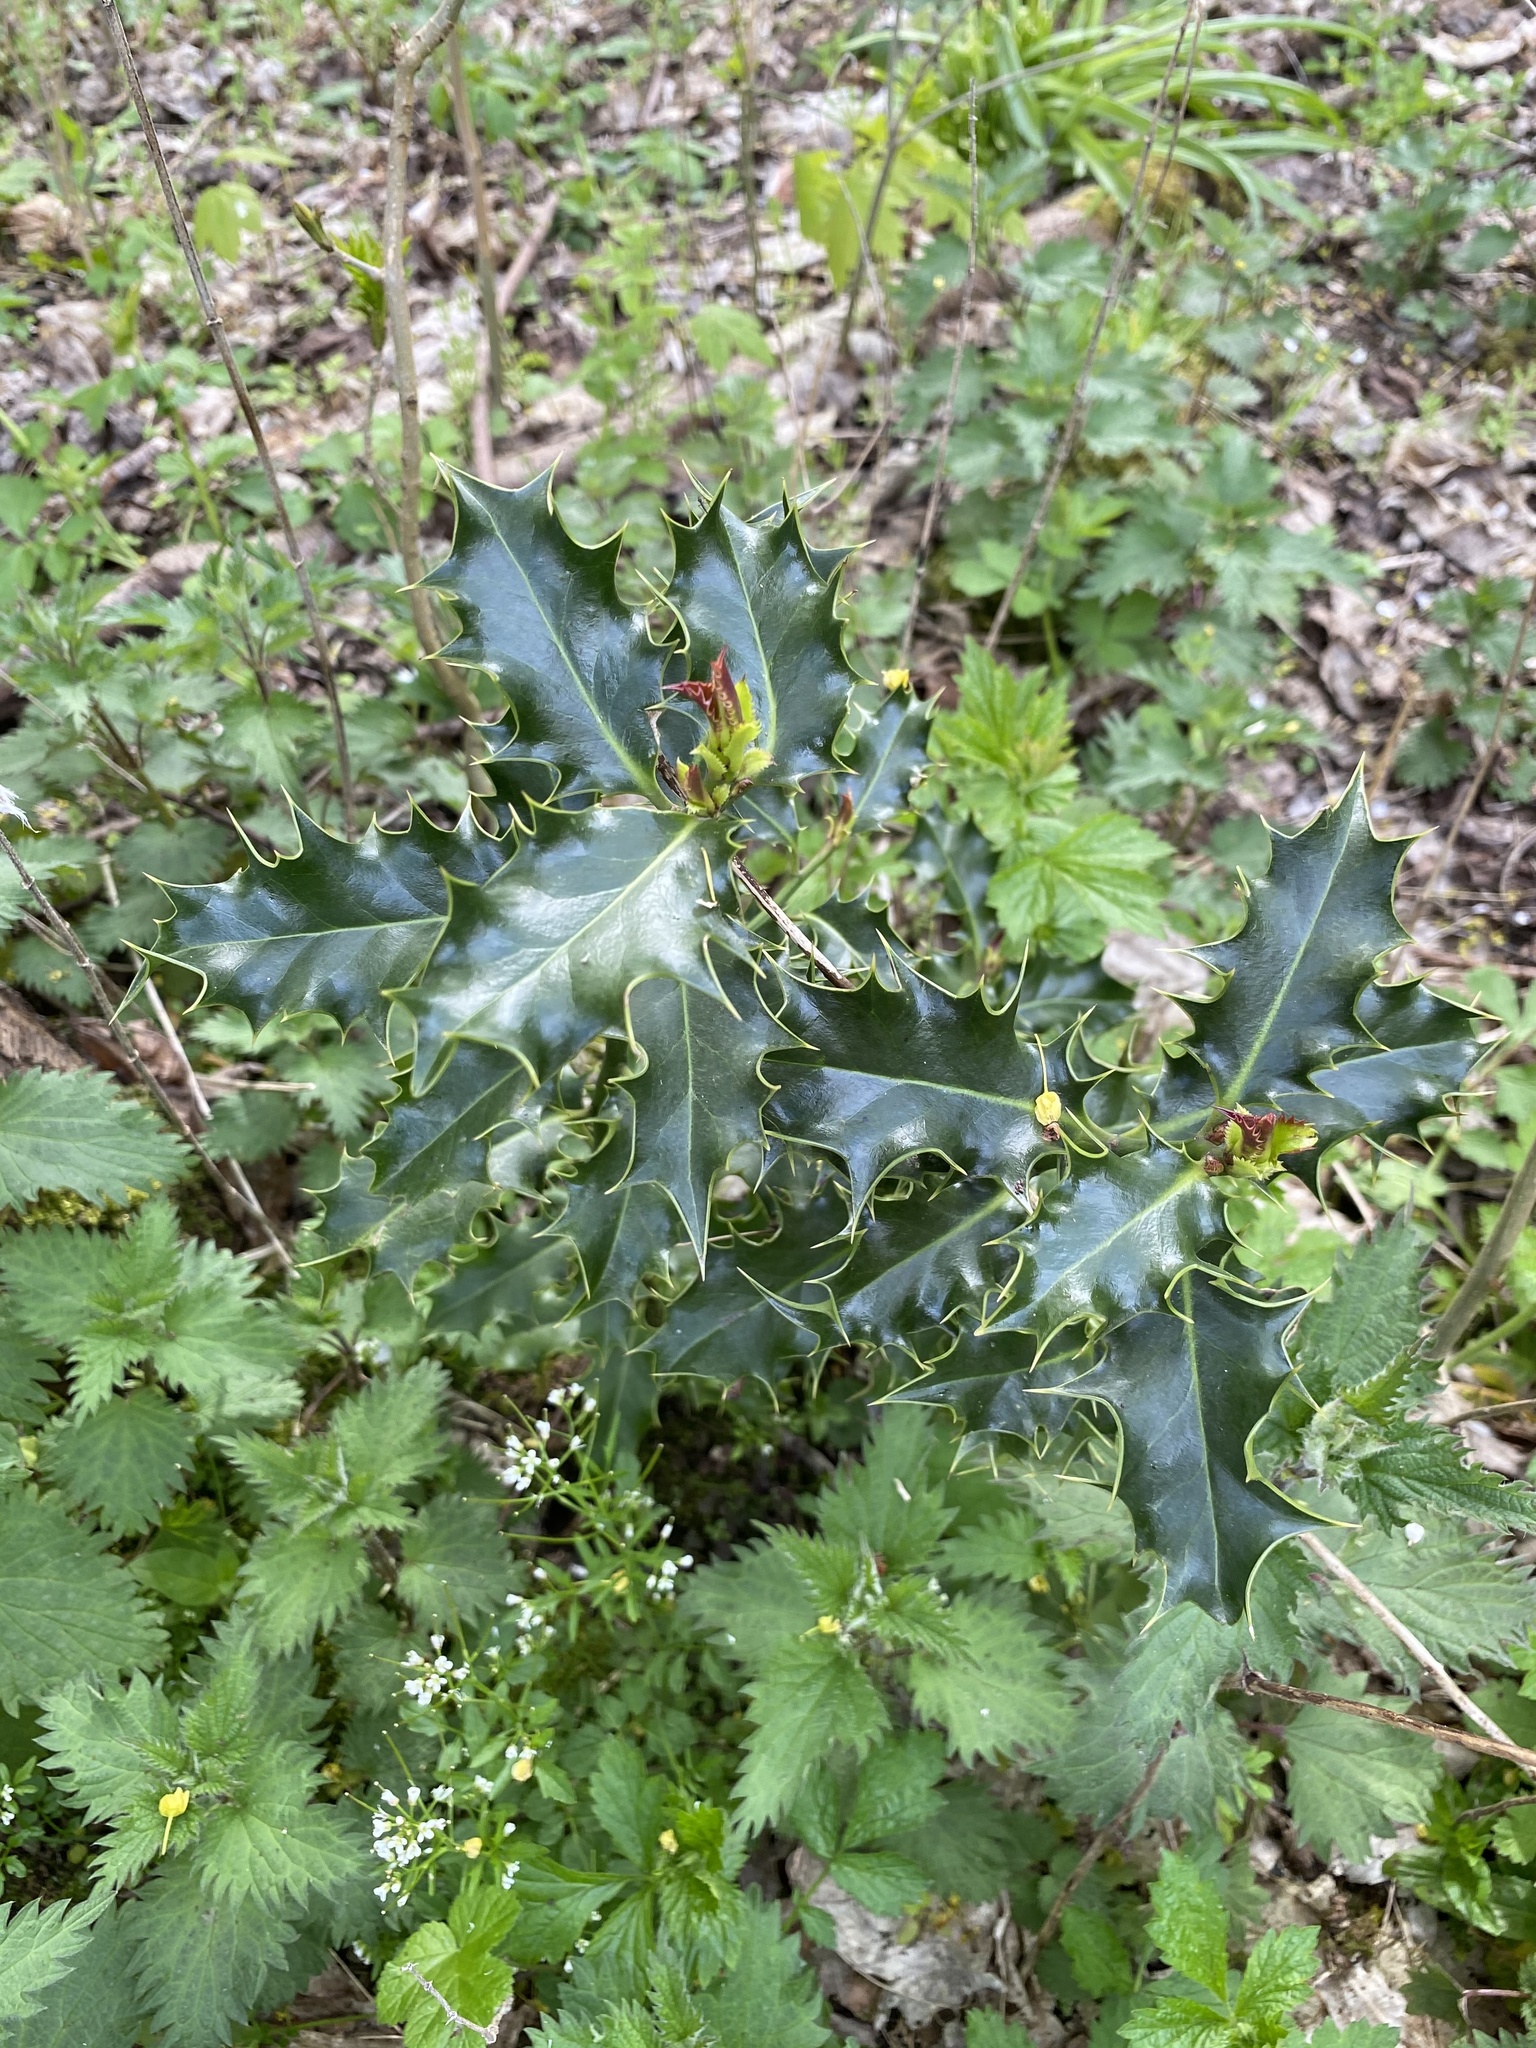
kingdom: Plantae
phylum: Tracheophyta
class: Magnoliopsida
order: Aquifoliales
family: Aquifoliaceae
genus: Ilex
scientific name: Ilex aquifolium
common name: English holly
